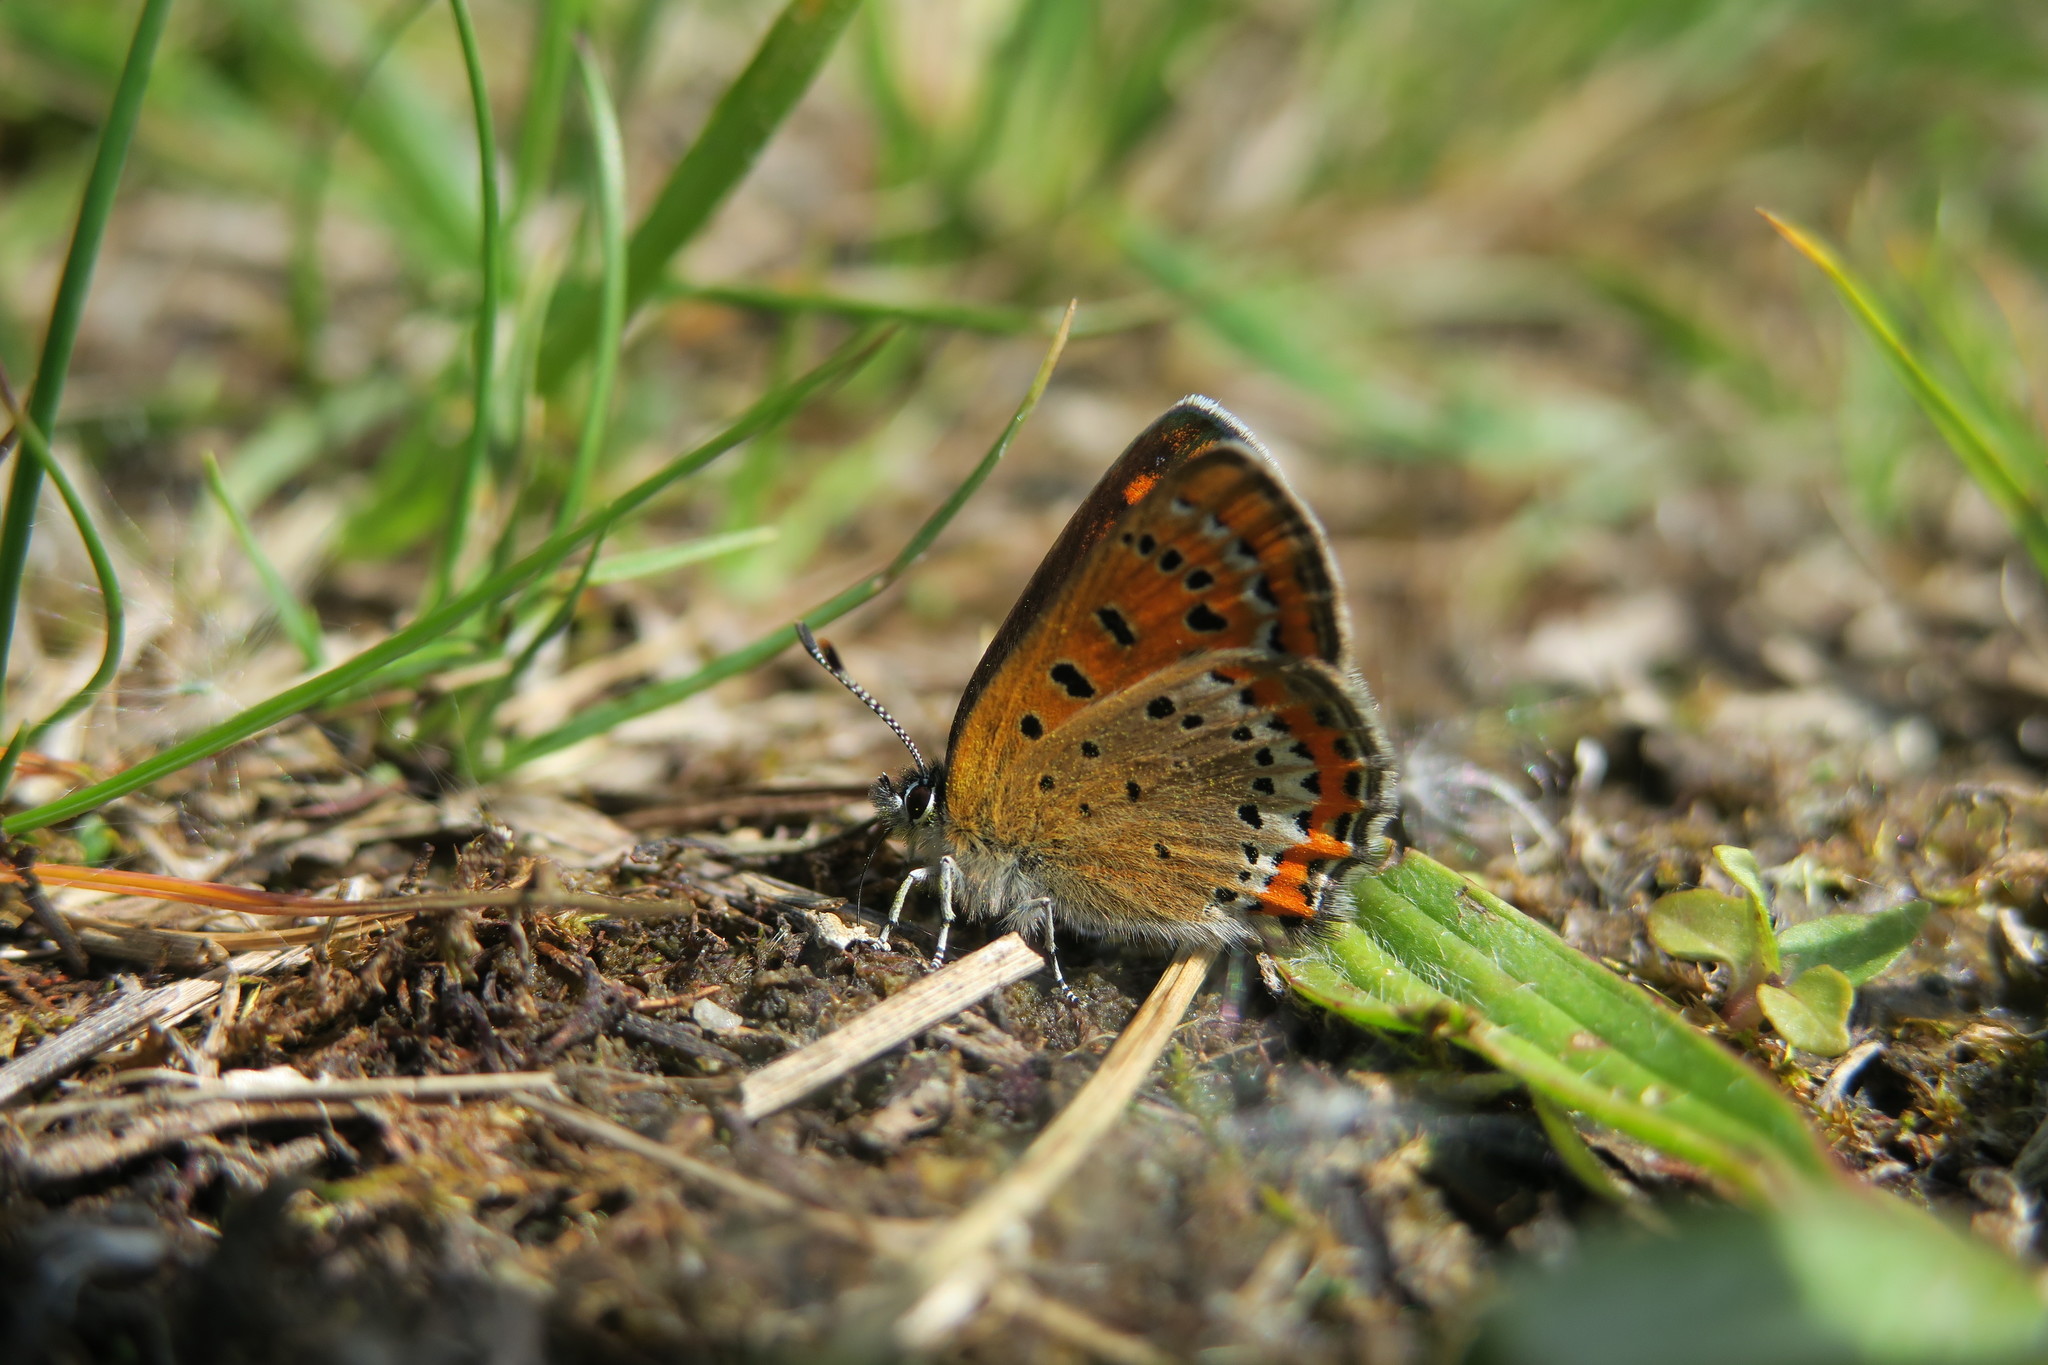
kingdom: Animalia
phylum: Arthropoda
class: Insecta
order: Lepidoptera
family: Lycaenidae
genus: Helleia
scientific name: Helleia helle
